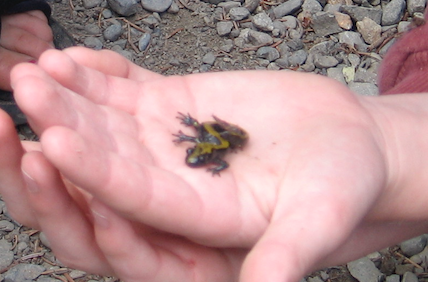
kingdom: Animalia
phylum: Chordata
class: Amphibia
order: Caudata
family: Ambystomatidae
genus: Ambystoma
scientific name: Ambystoma macrodactylum
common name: Long-toed salamander
